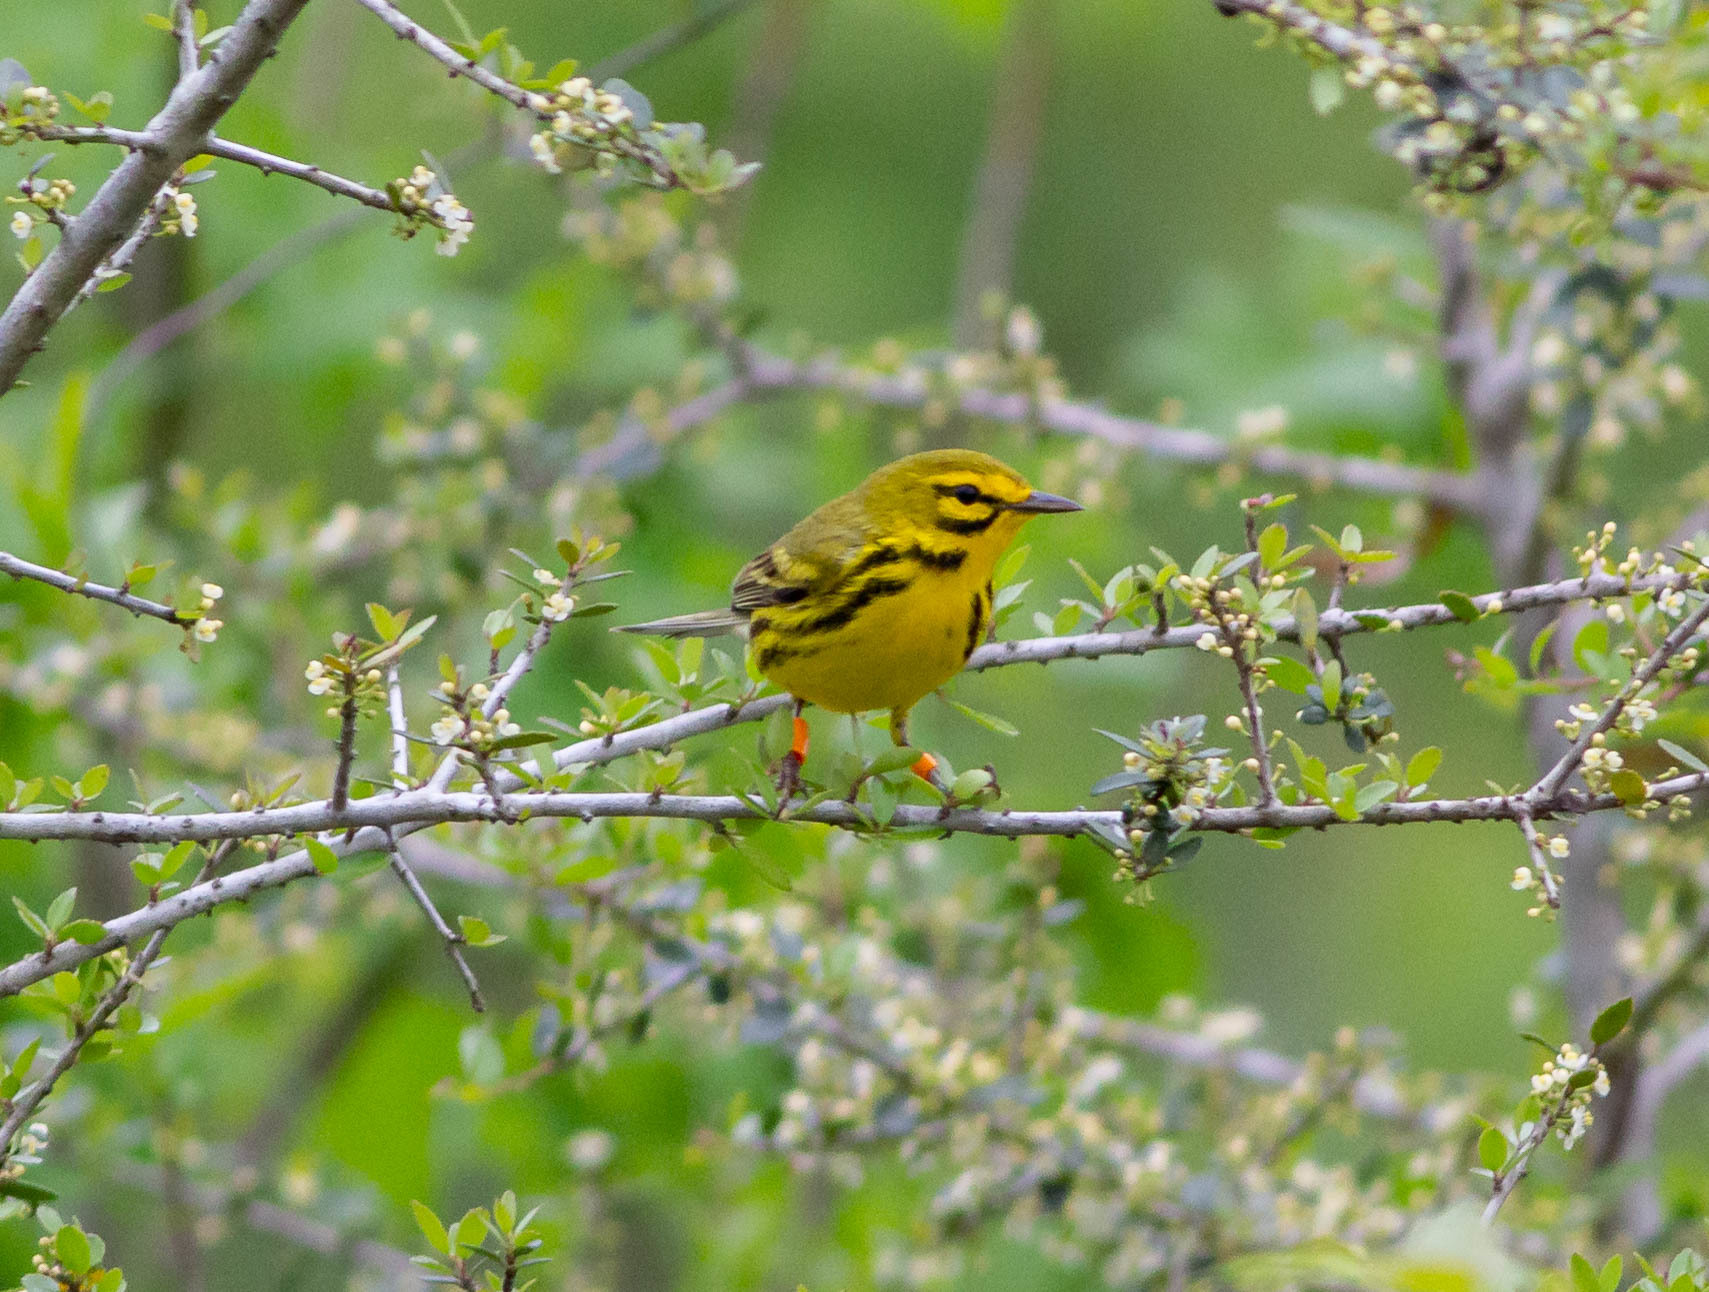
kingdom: Animalia
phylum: Chordata
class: Aves
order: Passeriformes
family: Parulidae
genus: Setophaga
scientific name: Setophaga discolor
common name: Prairie warbler
